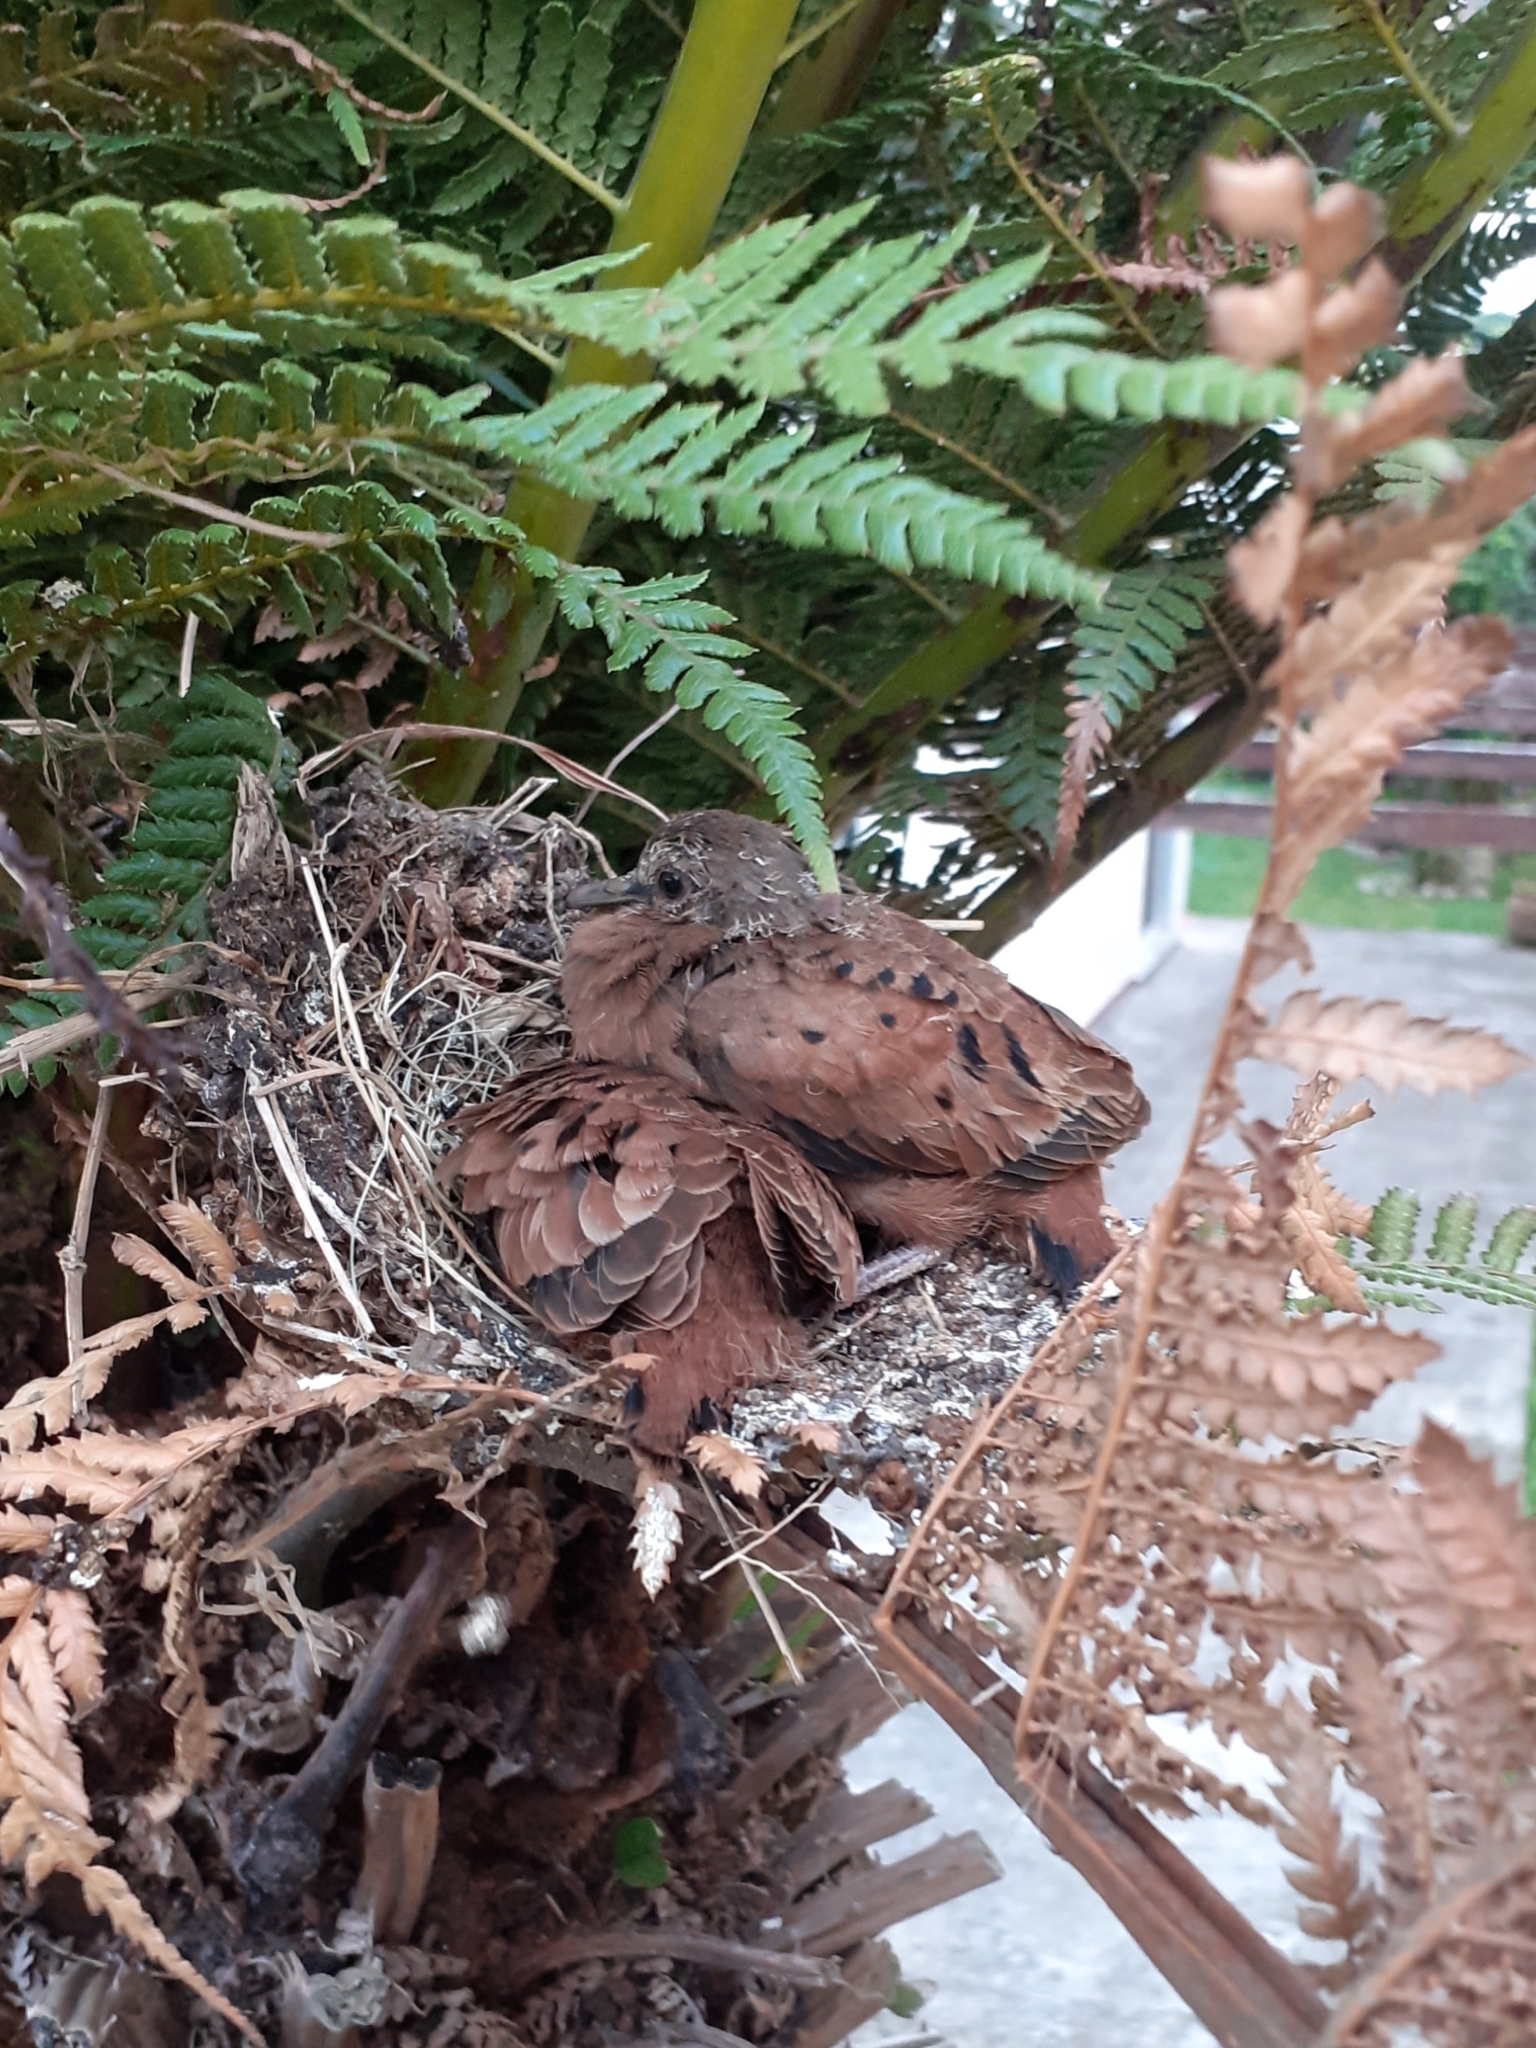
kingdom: Animalia
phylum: Chordata
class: Aves
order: Columbiformes
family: Columbidae
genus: Columbina
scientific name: Columbina talpacoti
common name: Ruddy ground dove
